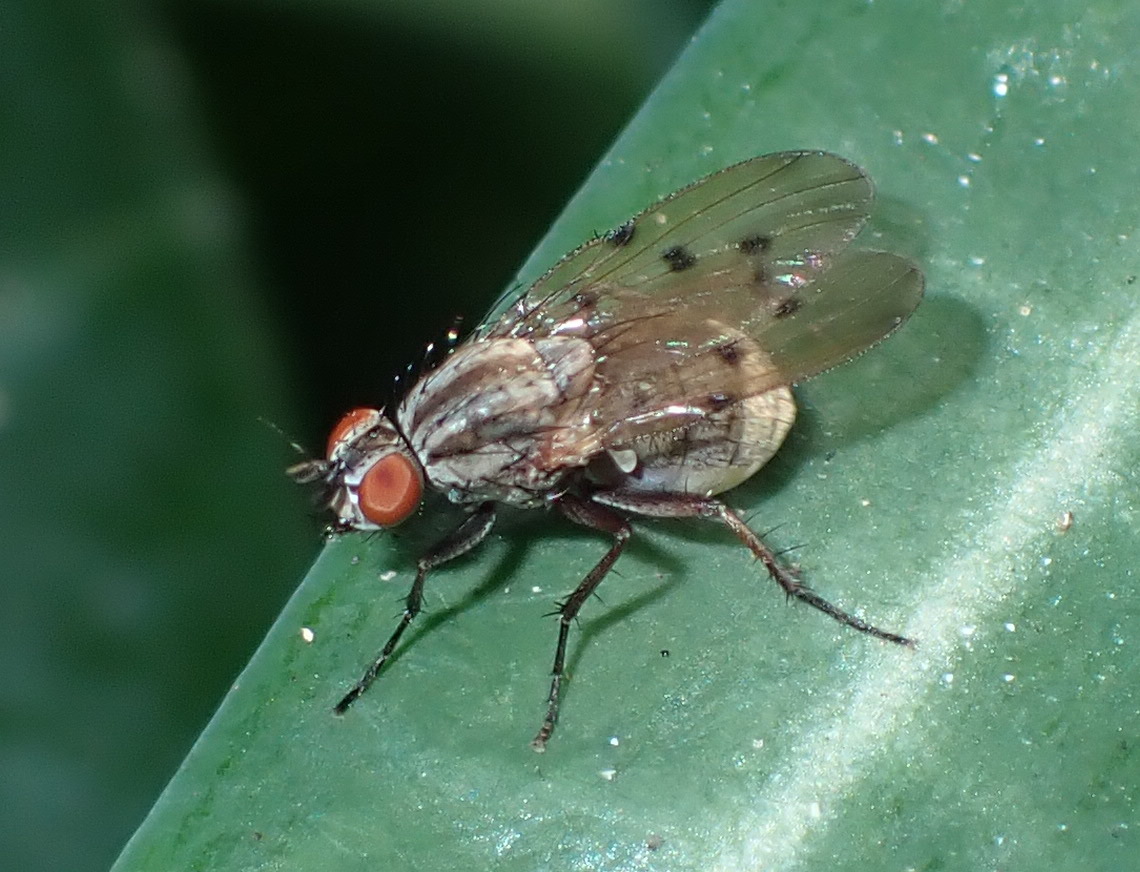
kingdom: Animalia
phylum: Arthropoda
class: Insecta
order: Diptera
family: Anthomyiidae
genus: Anthomyia
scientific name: Anthomyia punctipennis
